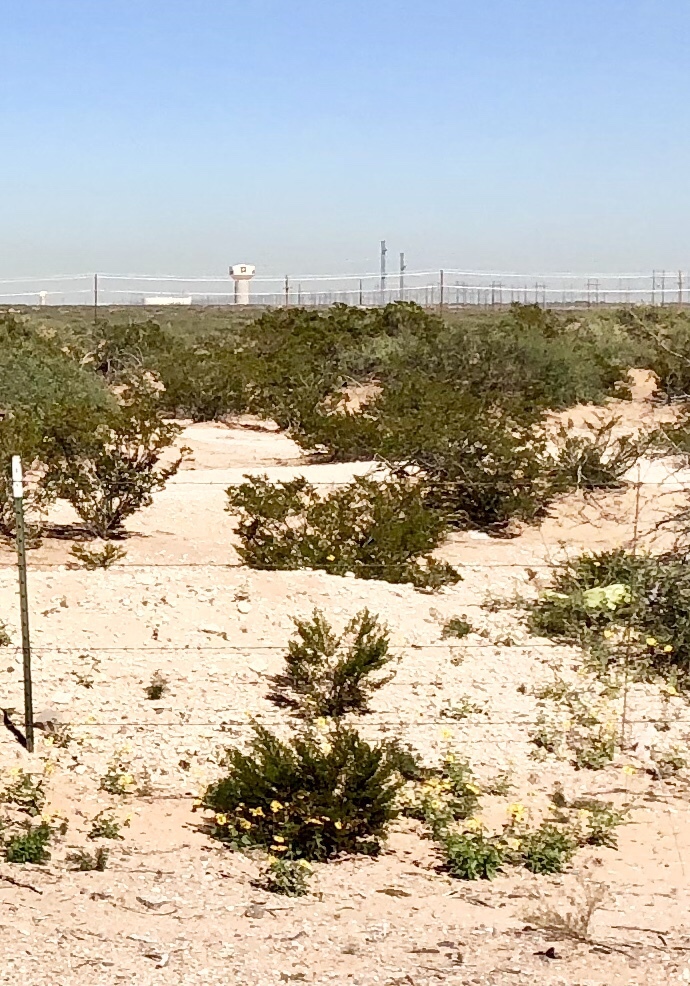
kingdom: Plantae
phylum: Tracheophyta
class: Magnoliopsida
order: Zygophyllales
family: Zygophyllaceae
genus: Larrea
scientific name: Larrea tridentata
